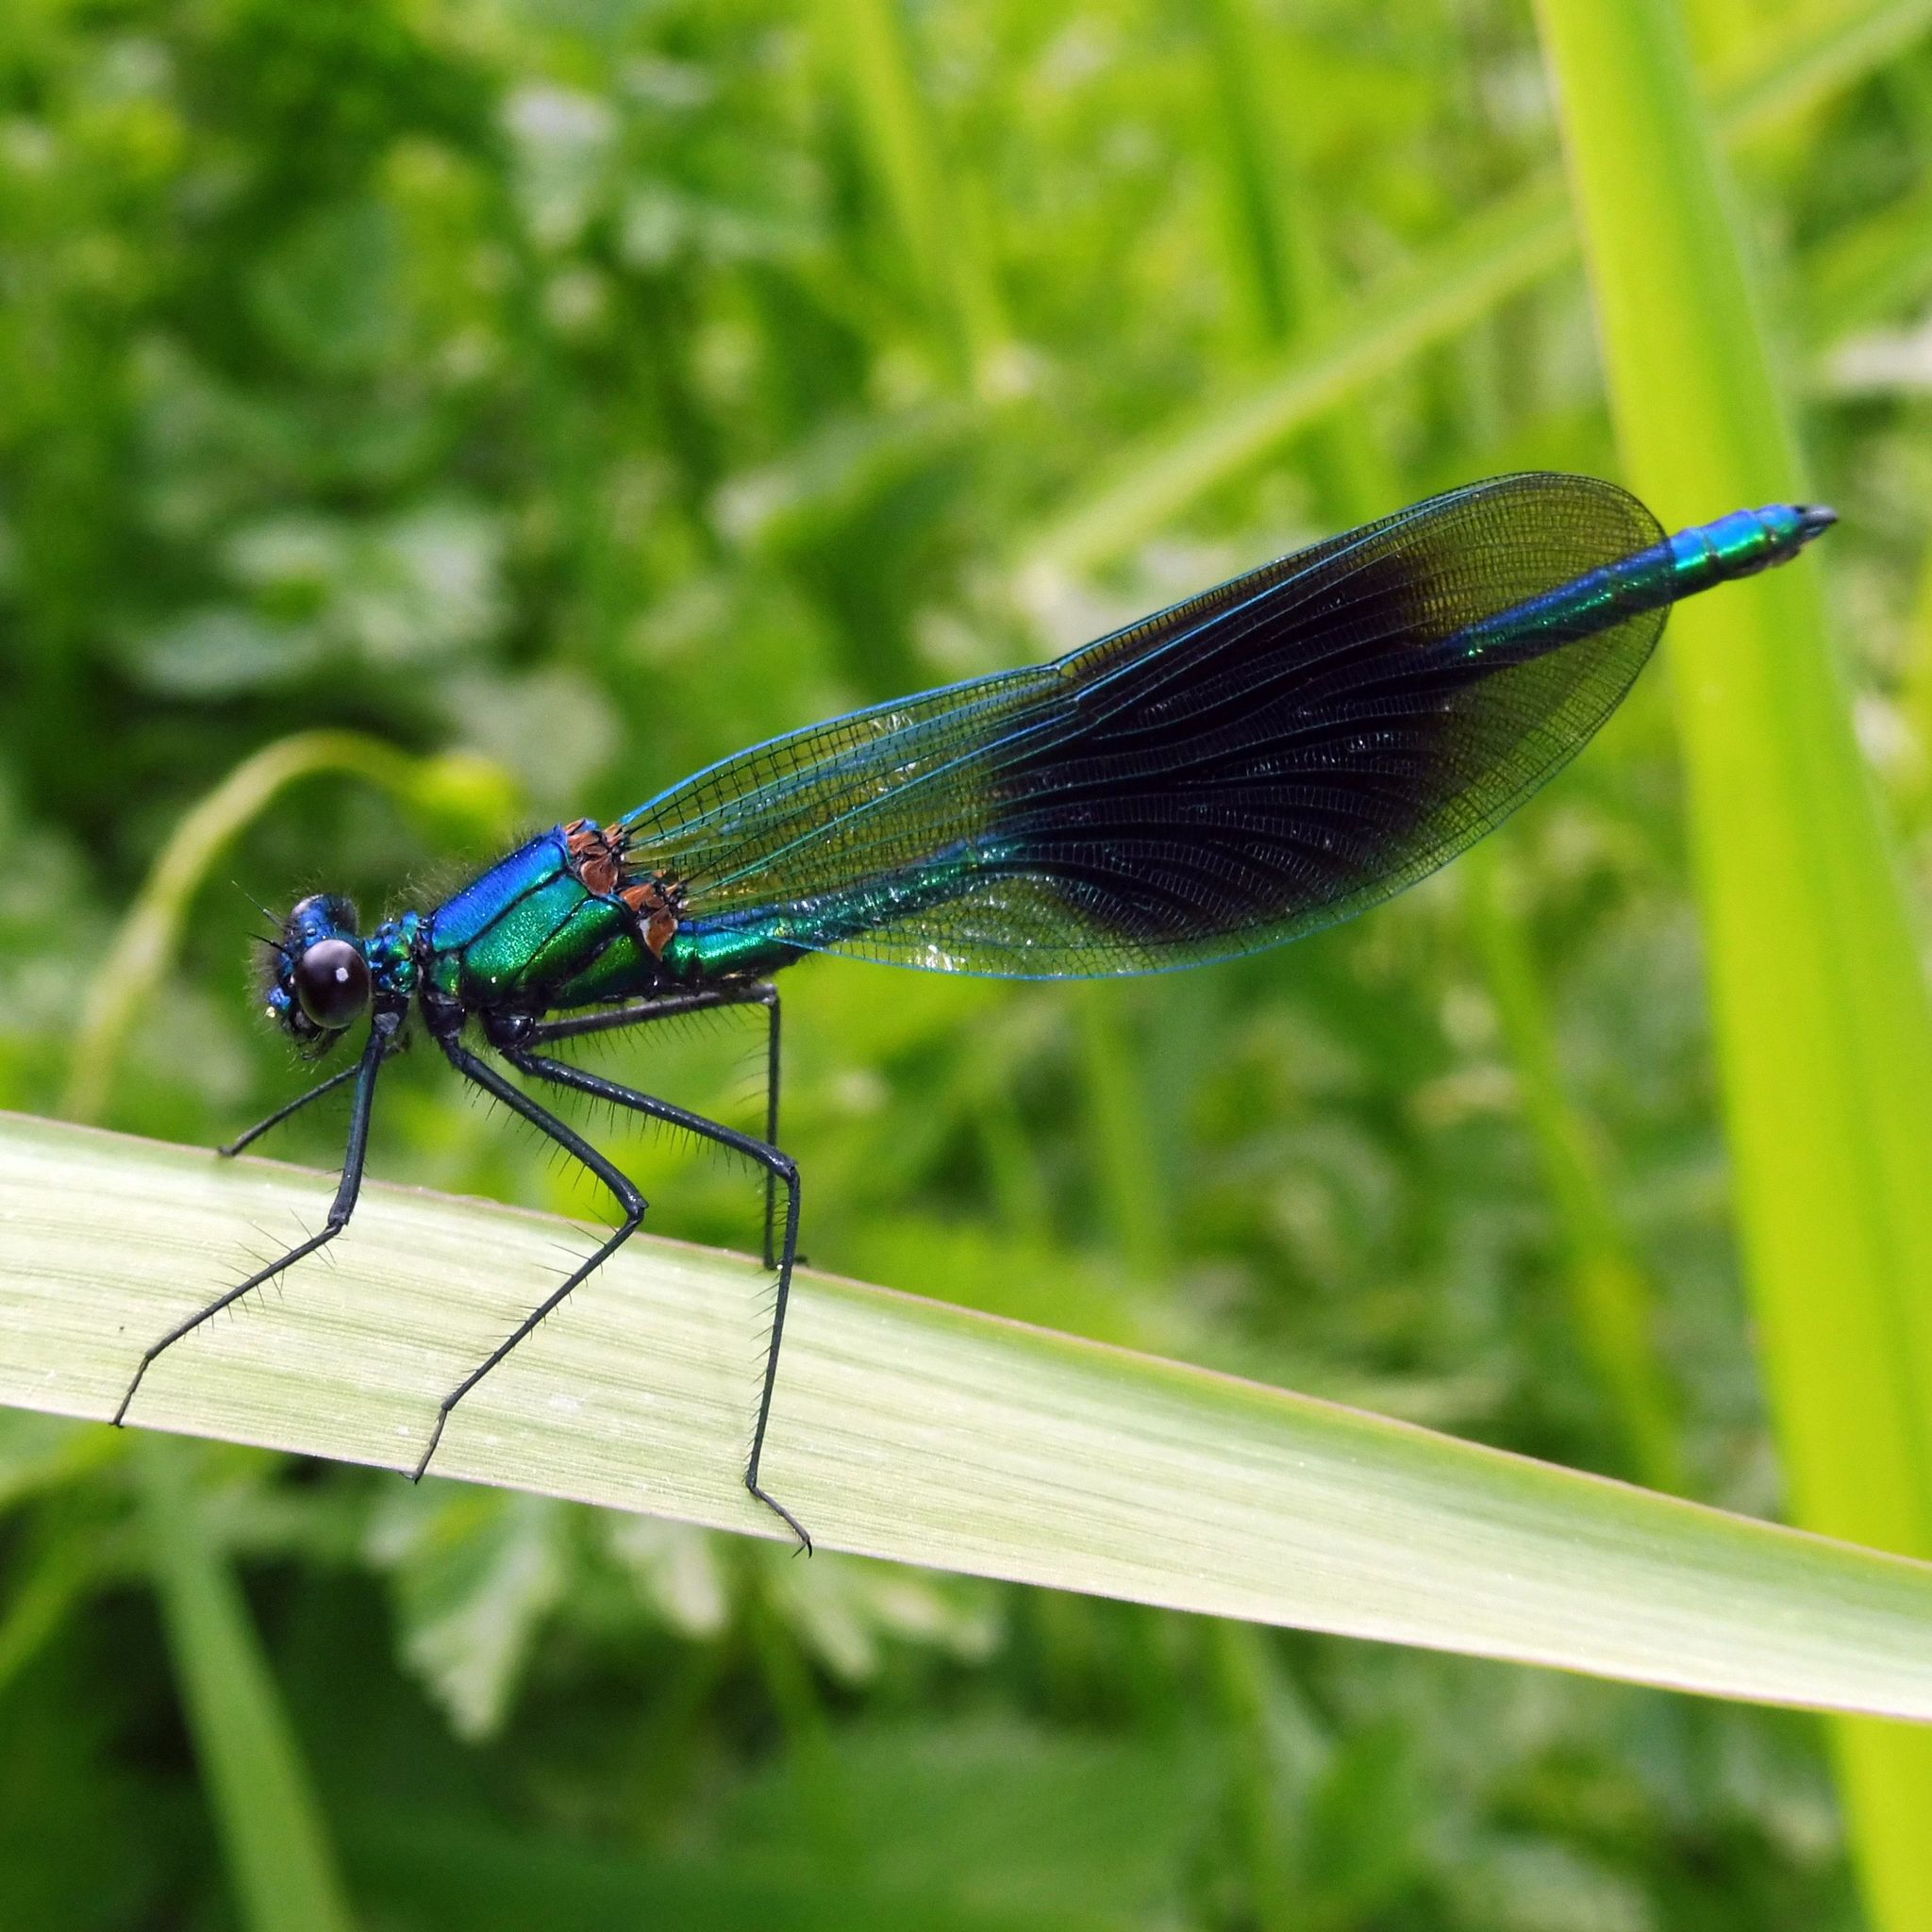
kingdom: Animalia
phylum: Arthropoda
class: Insecta
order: Odonata
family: Calopterygidae
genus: Calopteryx
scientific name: Calopteryx splendens
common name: Banded demoiselle
